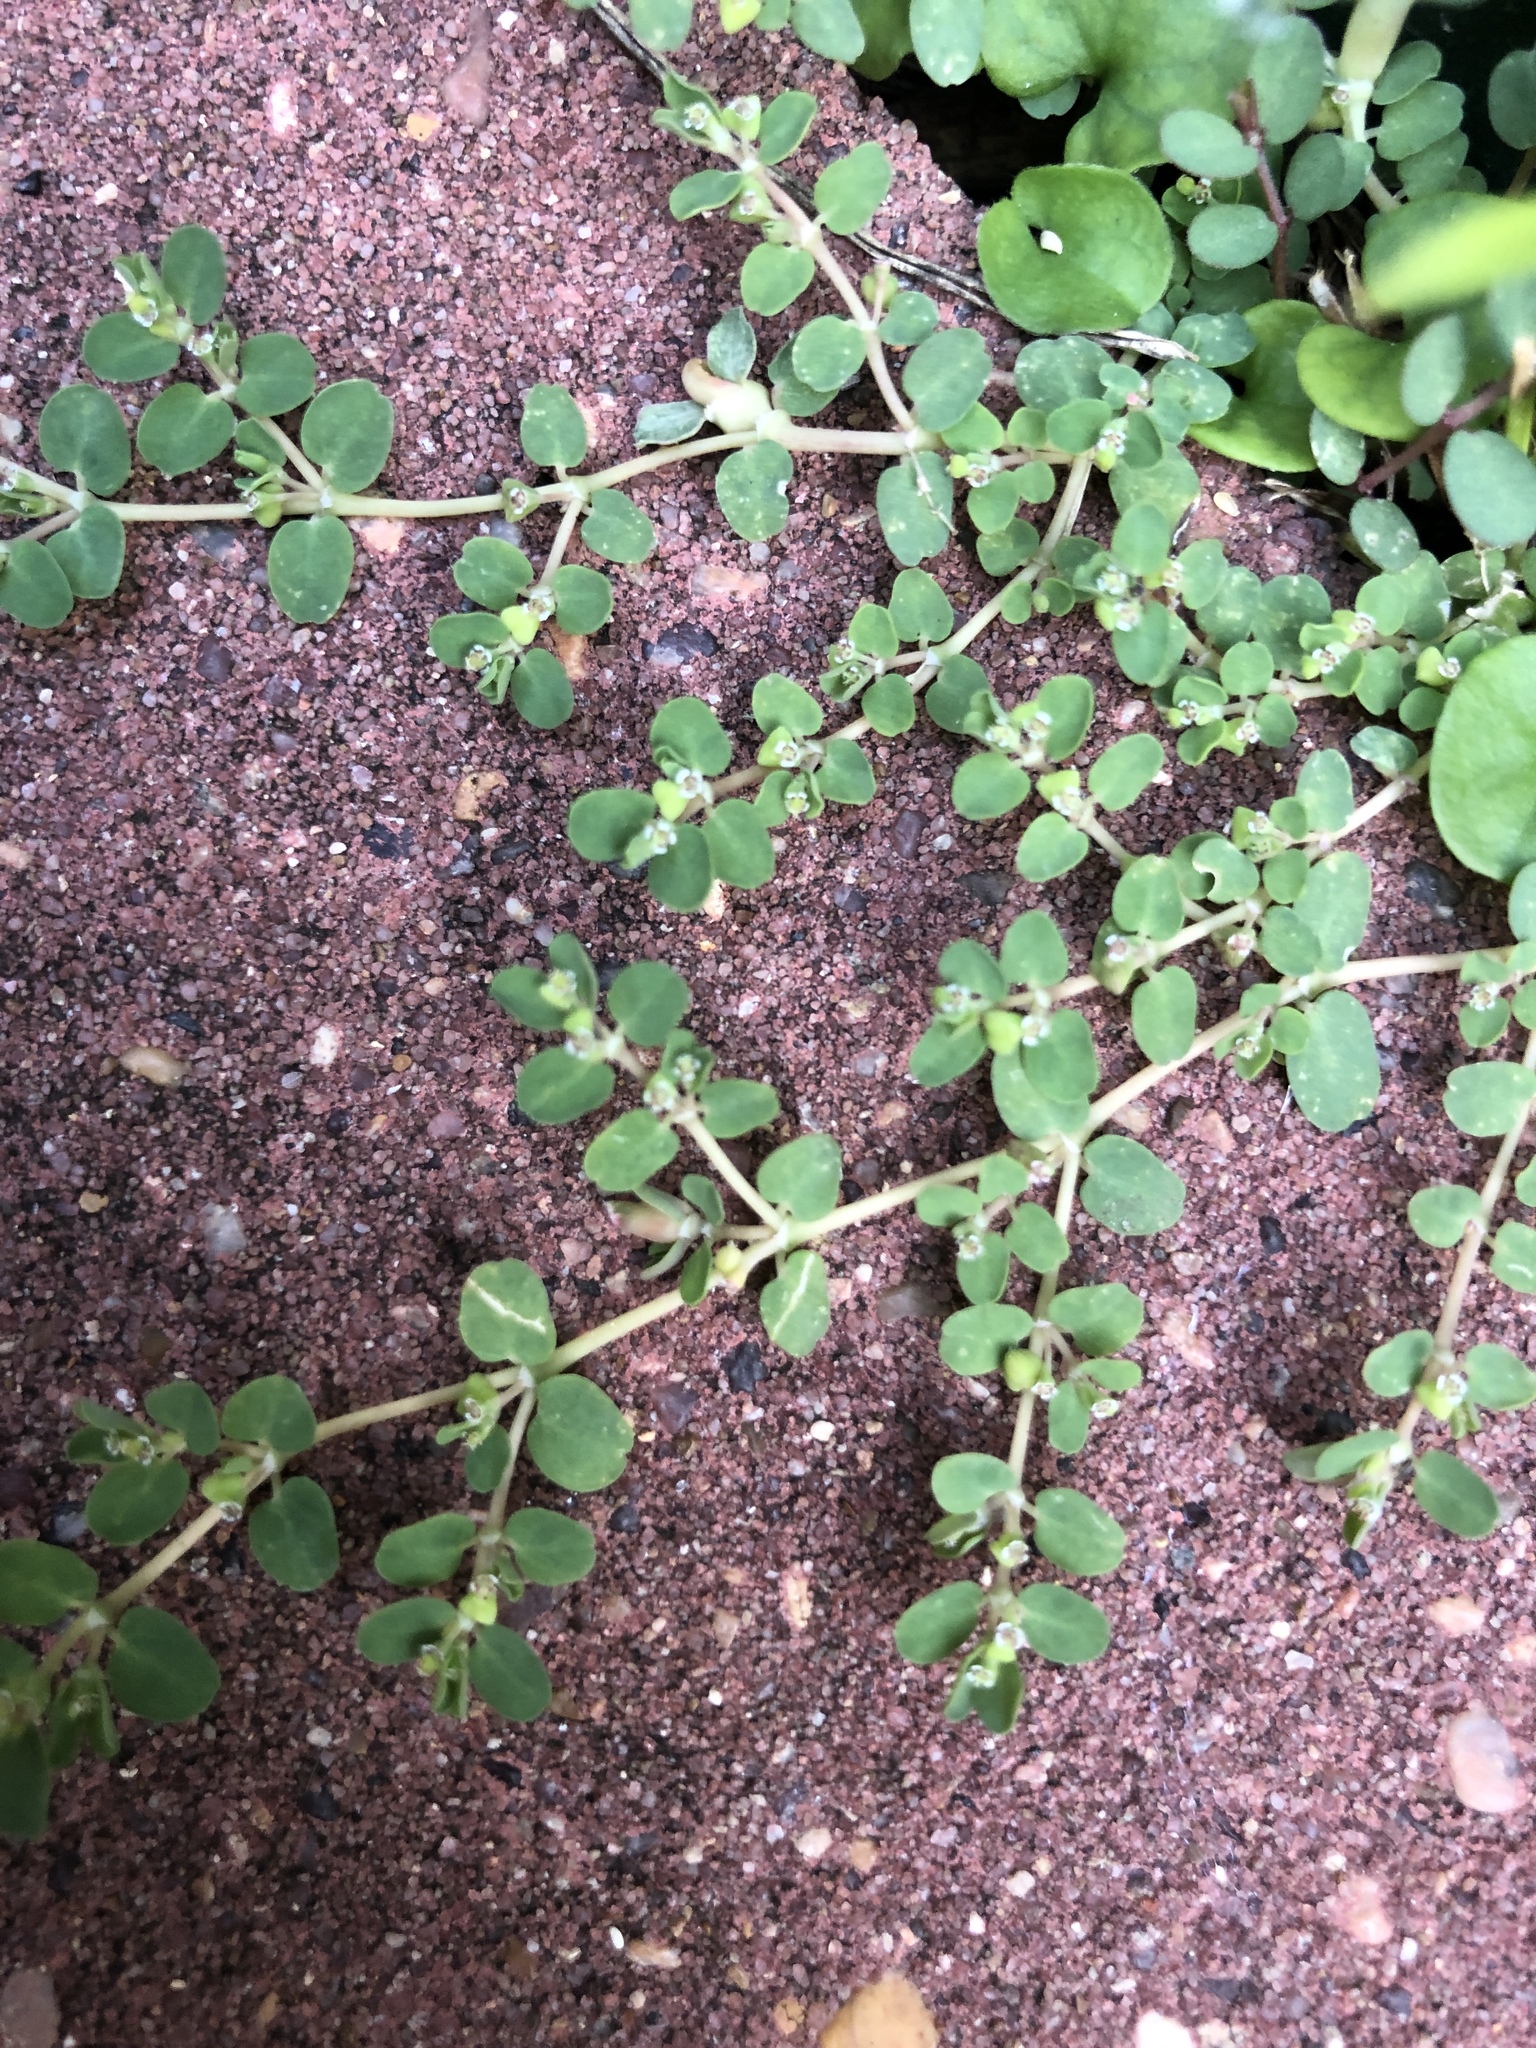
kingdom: Plantae
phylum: Tracheophyta
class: Magnoliopsida
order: Malpighiales
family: Euphorbiaceae
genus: Euphorbia
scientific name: Euphorbia serpens
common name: Matted sandmat
